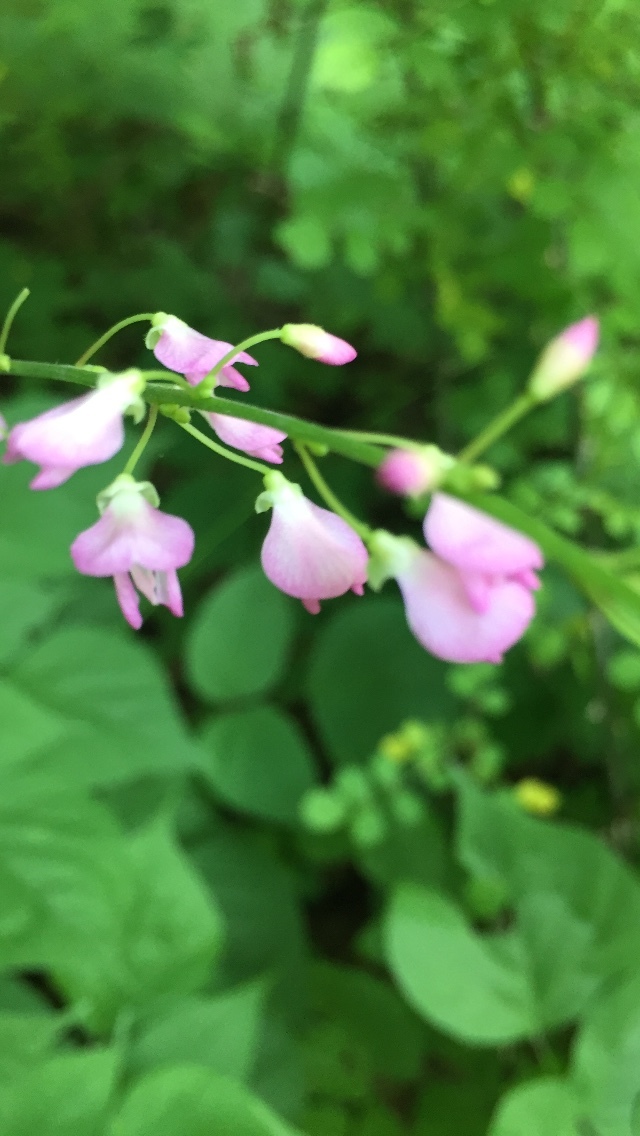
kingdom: Plantae
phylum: Tracheophyta
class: Magnoliopsida
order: Fabales
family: Fabaceae
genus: Hylodesmum
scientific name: Hylodesmum glutinosum
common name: Clustered-leaved tick-trefoil
